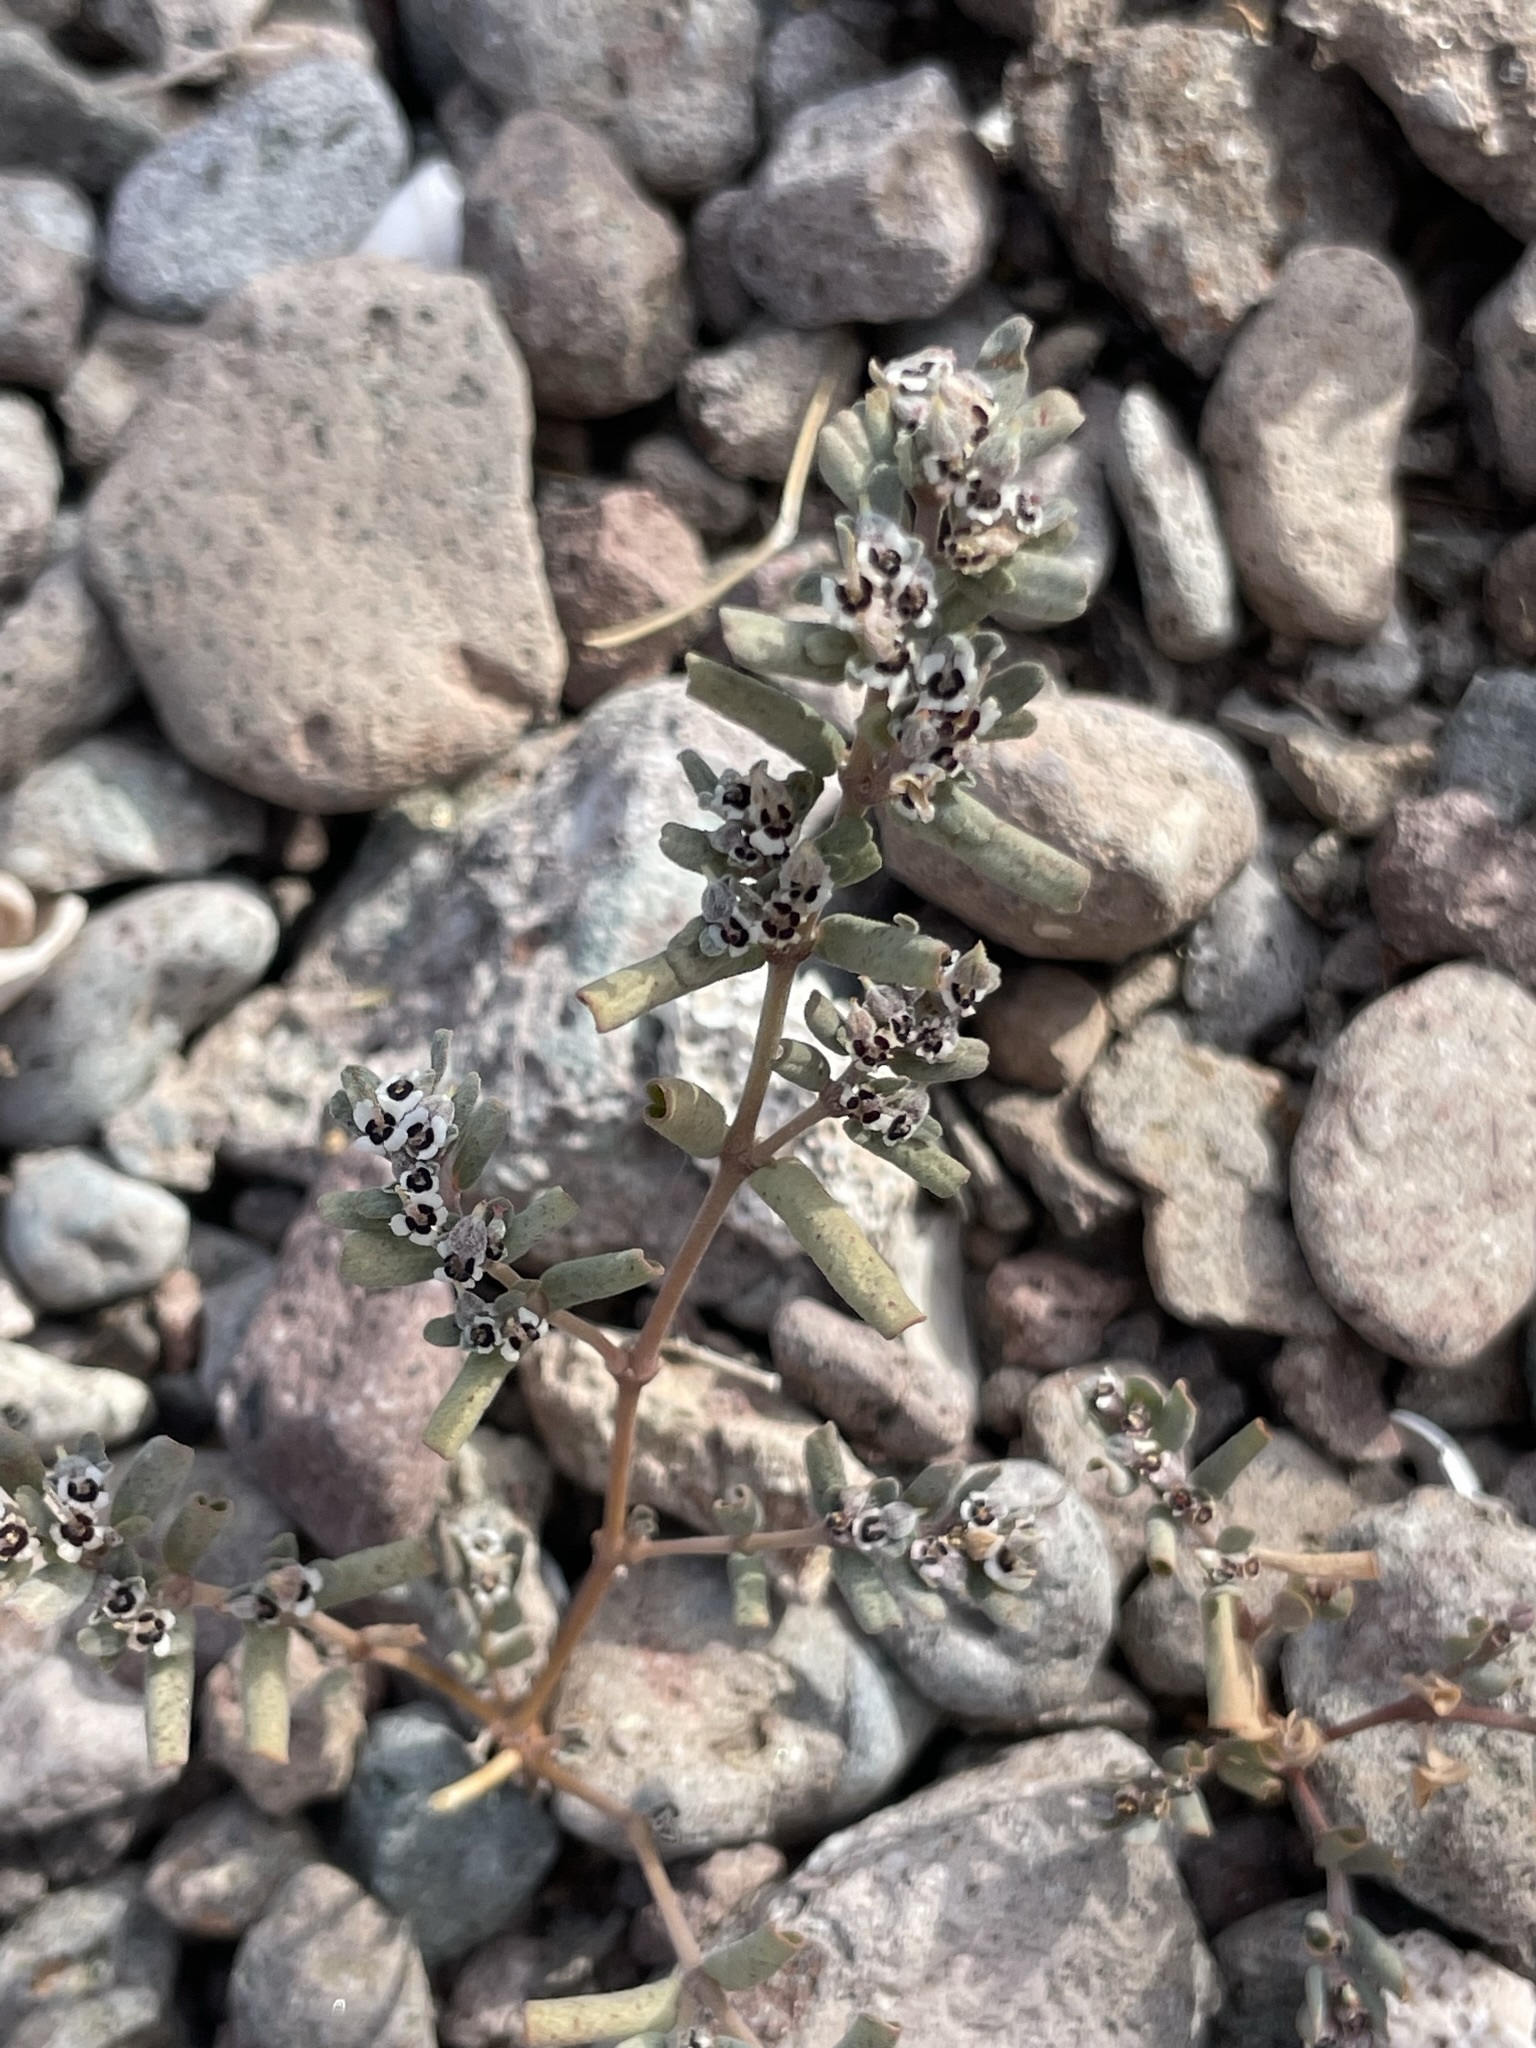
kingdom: Plantae
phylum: Tracheophyta
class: Magnoliopsida
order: Malpighiales
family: Euphorbiaceae
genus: Euphorbia
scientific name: Euphorbia pediculifera
